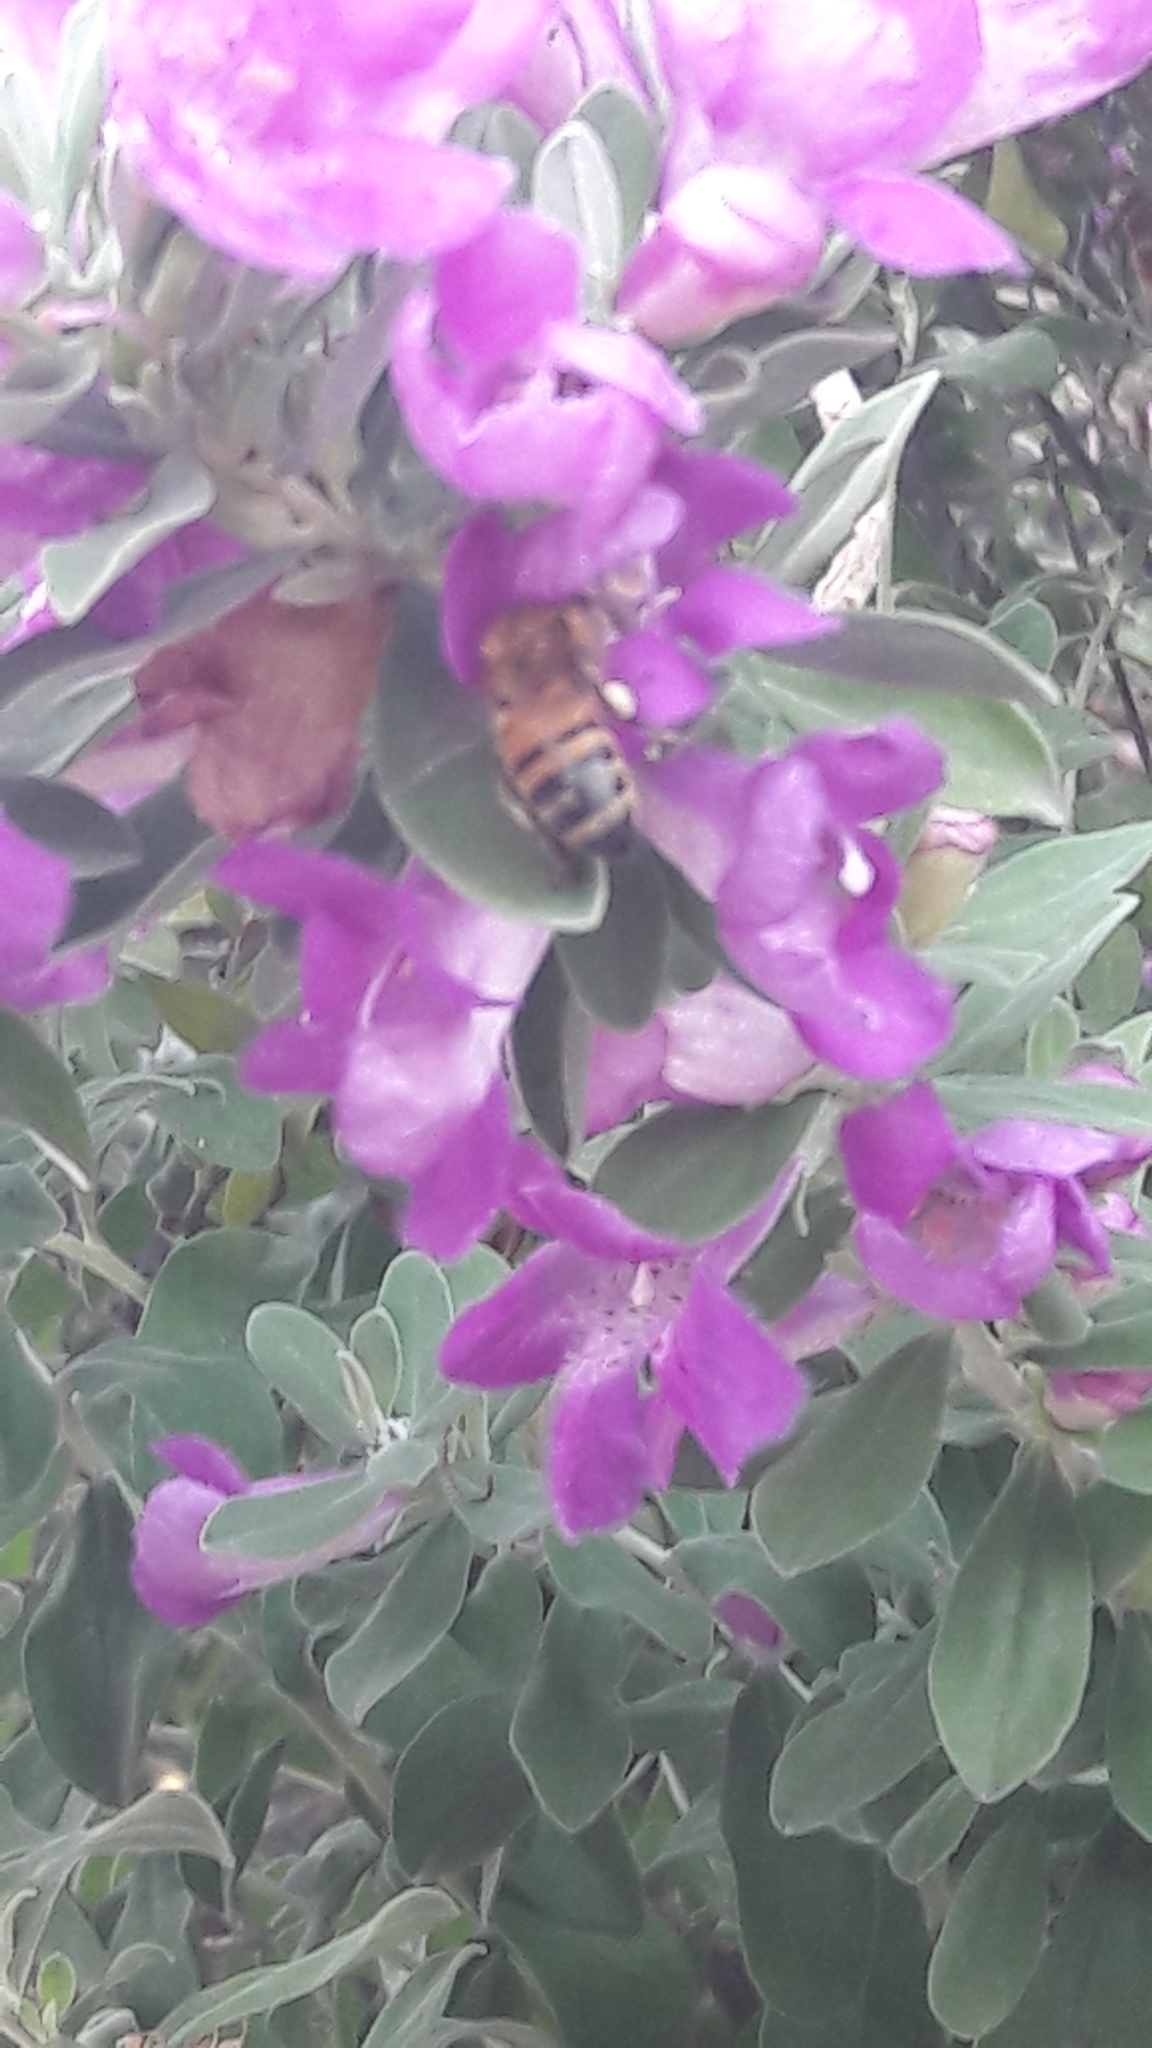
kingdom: Animalia
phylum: Arthropoda
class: Insecta
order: Hymenoptera
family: Apidae
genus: Apis
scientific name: Apis mellifera
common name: Honey bee
